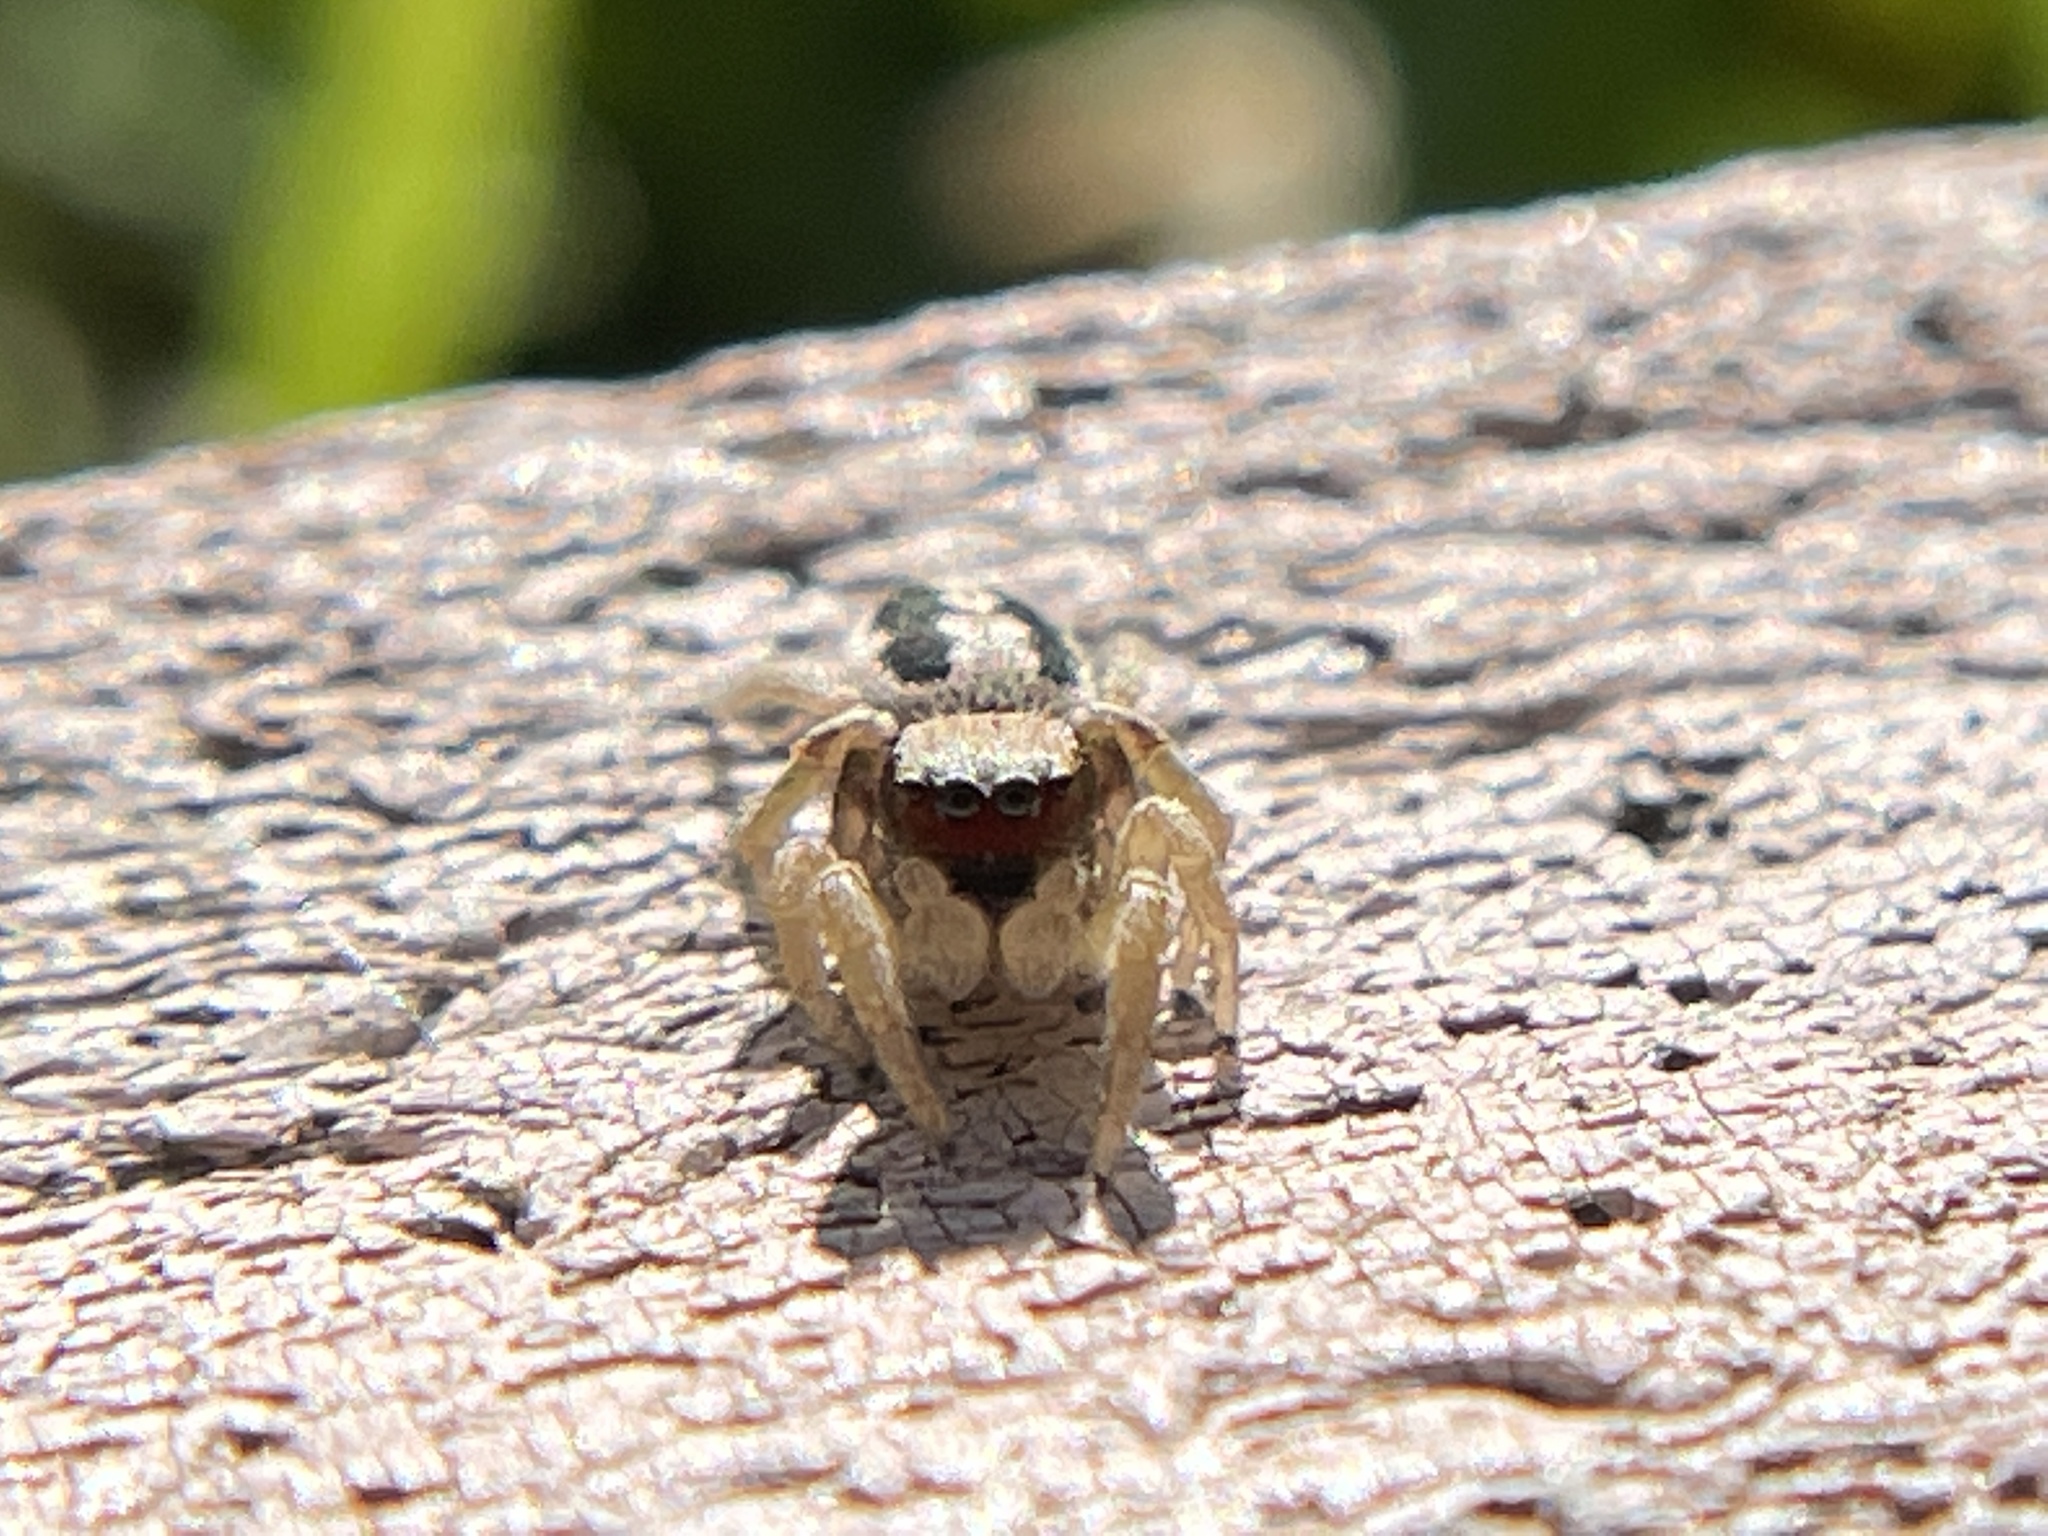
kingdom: Animalia
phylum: Arthropoda
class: Arachnida
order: Araneae
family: Salticidae
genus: Habronattus
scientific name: Habronattus pyrrithrix
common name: Jumping spider
